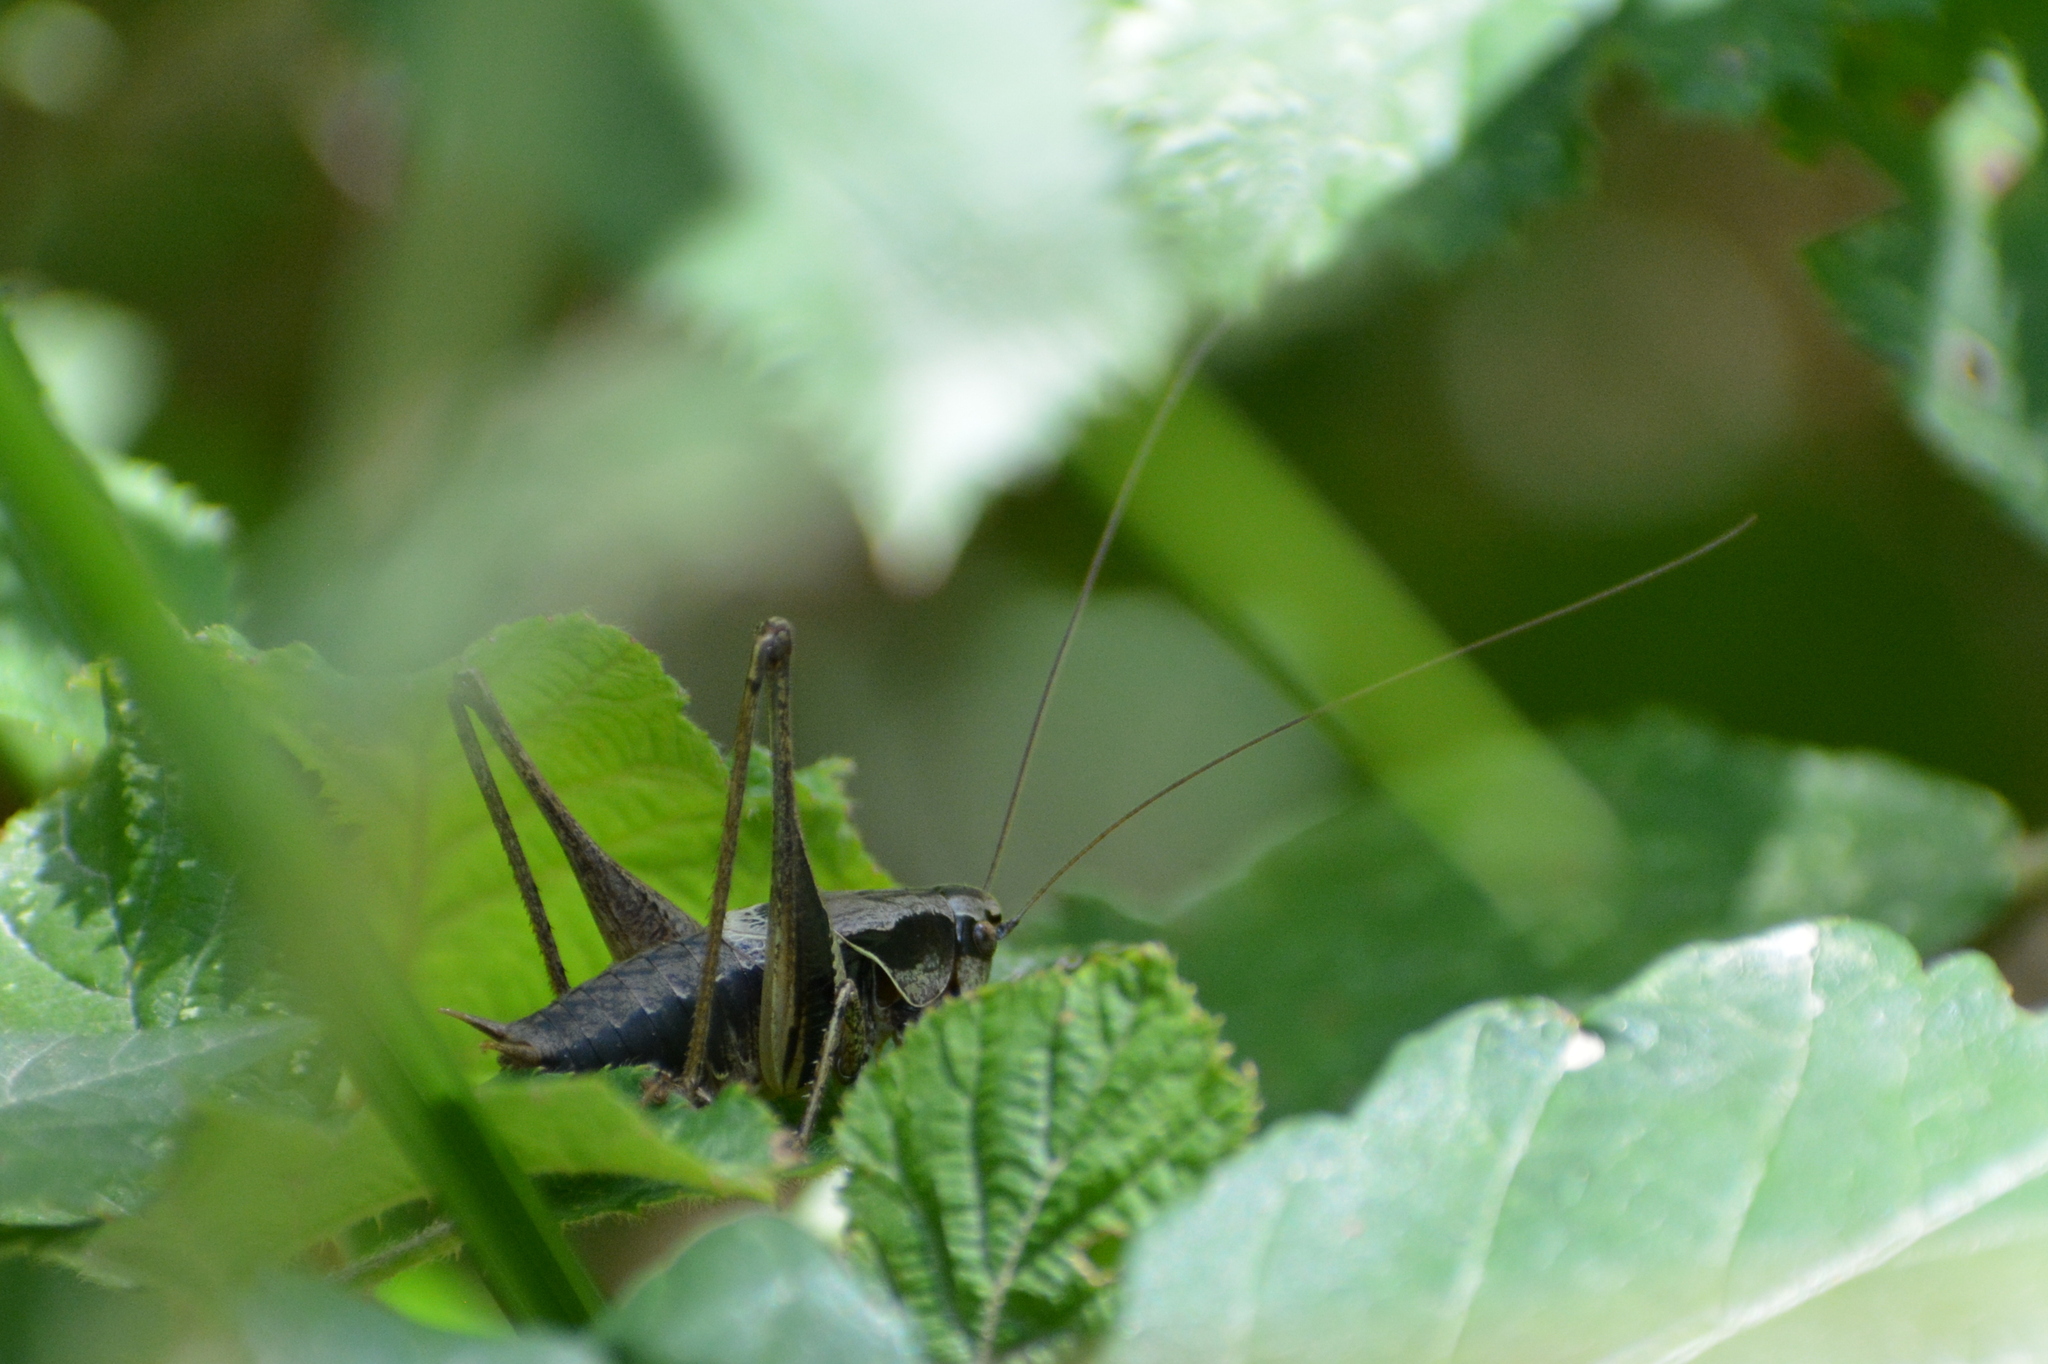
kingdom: Animalia
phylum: Arthropoda
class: Insecta
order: Orthoptera
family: Tettigoniidae
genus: Pholidoptera
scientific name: Pholidoptera griseoaptera
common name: Dark bush-cricket
